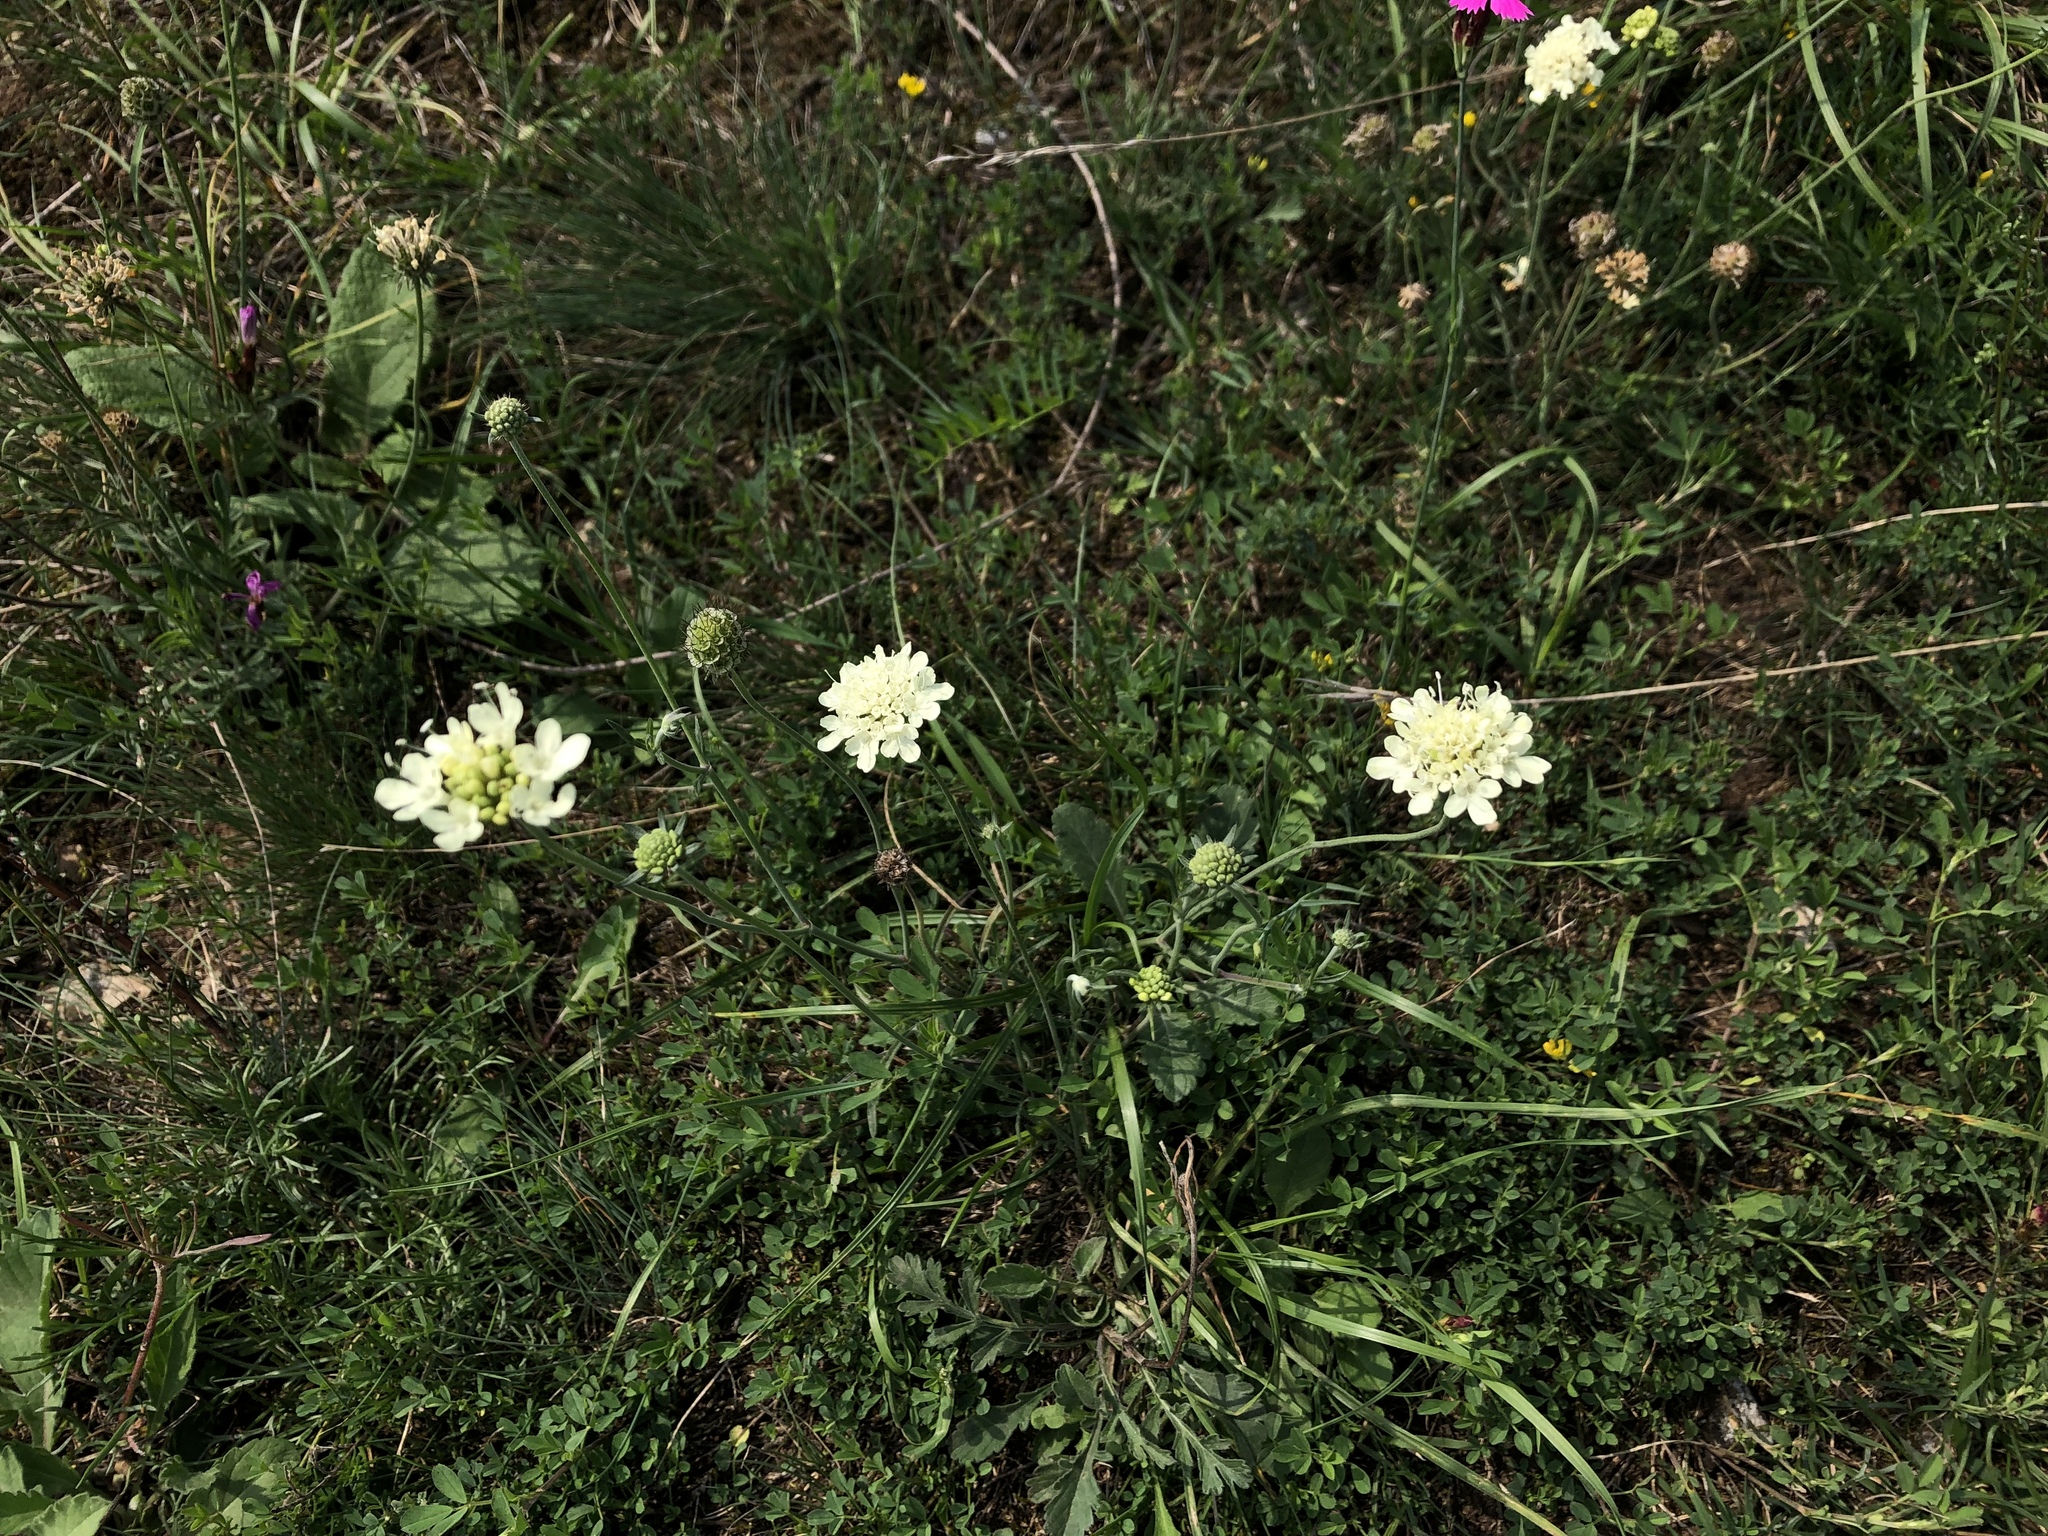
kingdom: Plantae
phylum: Tracheophyta
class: Magnoliopsida
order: Dipsacales
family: Caprifoliaceae
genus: Scabiosa
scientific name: Scabiosa ochroleuca
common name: Cream pincushions
